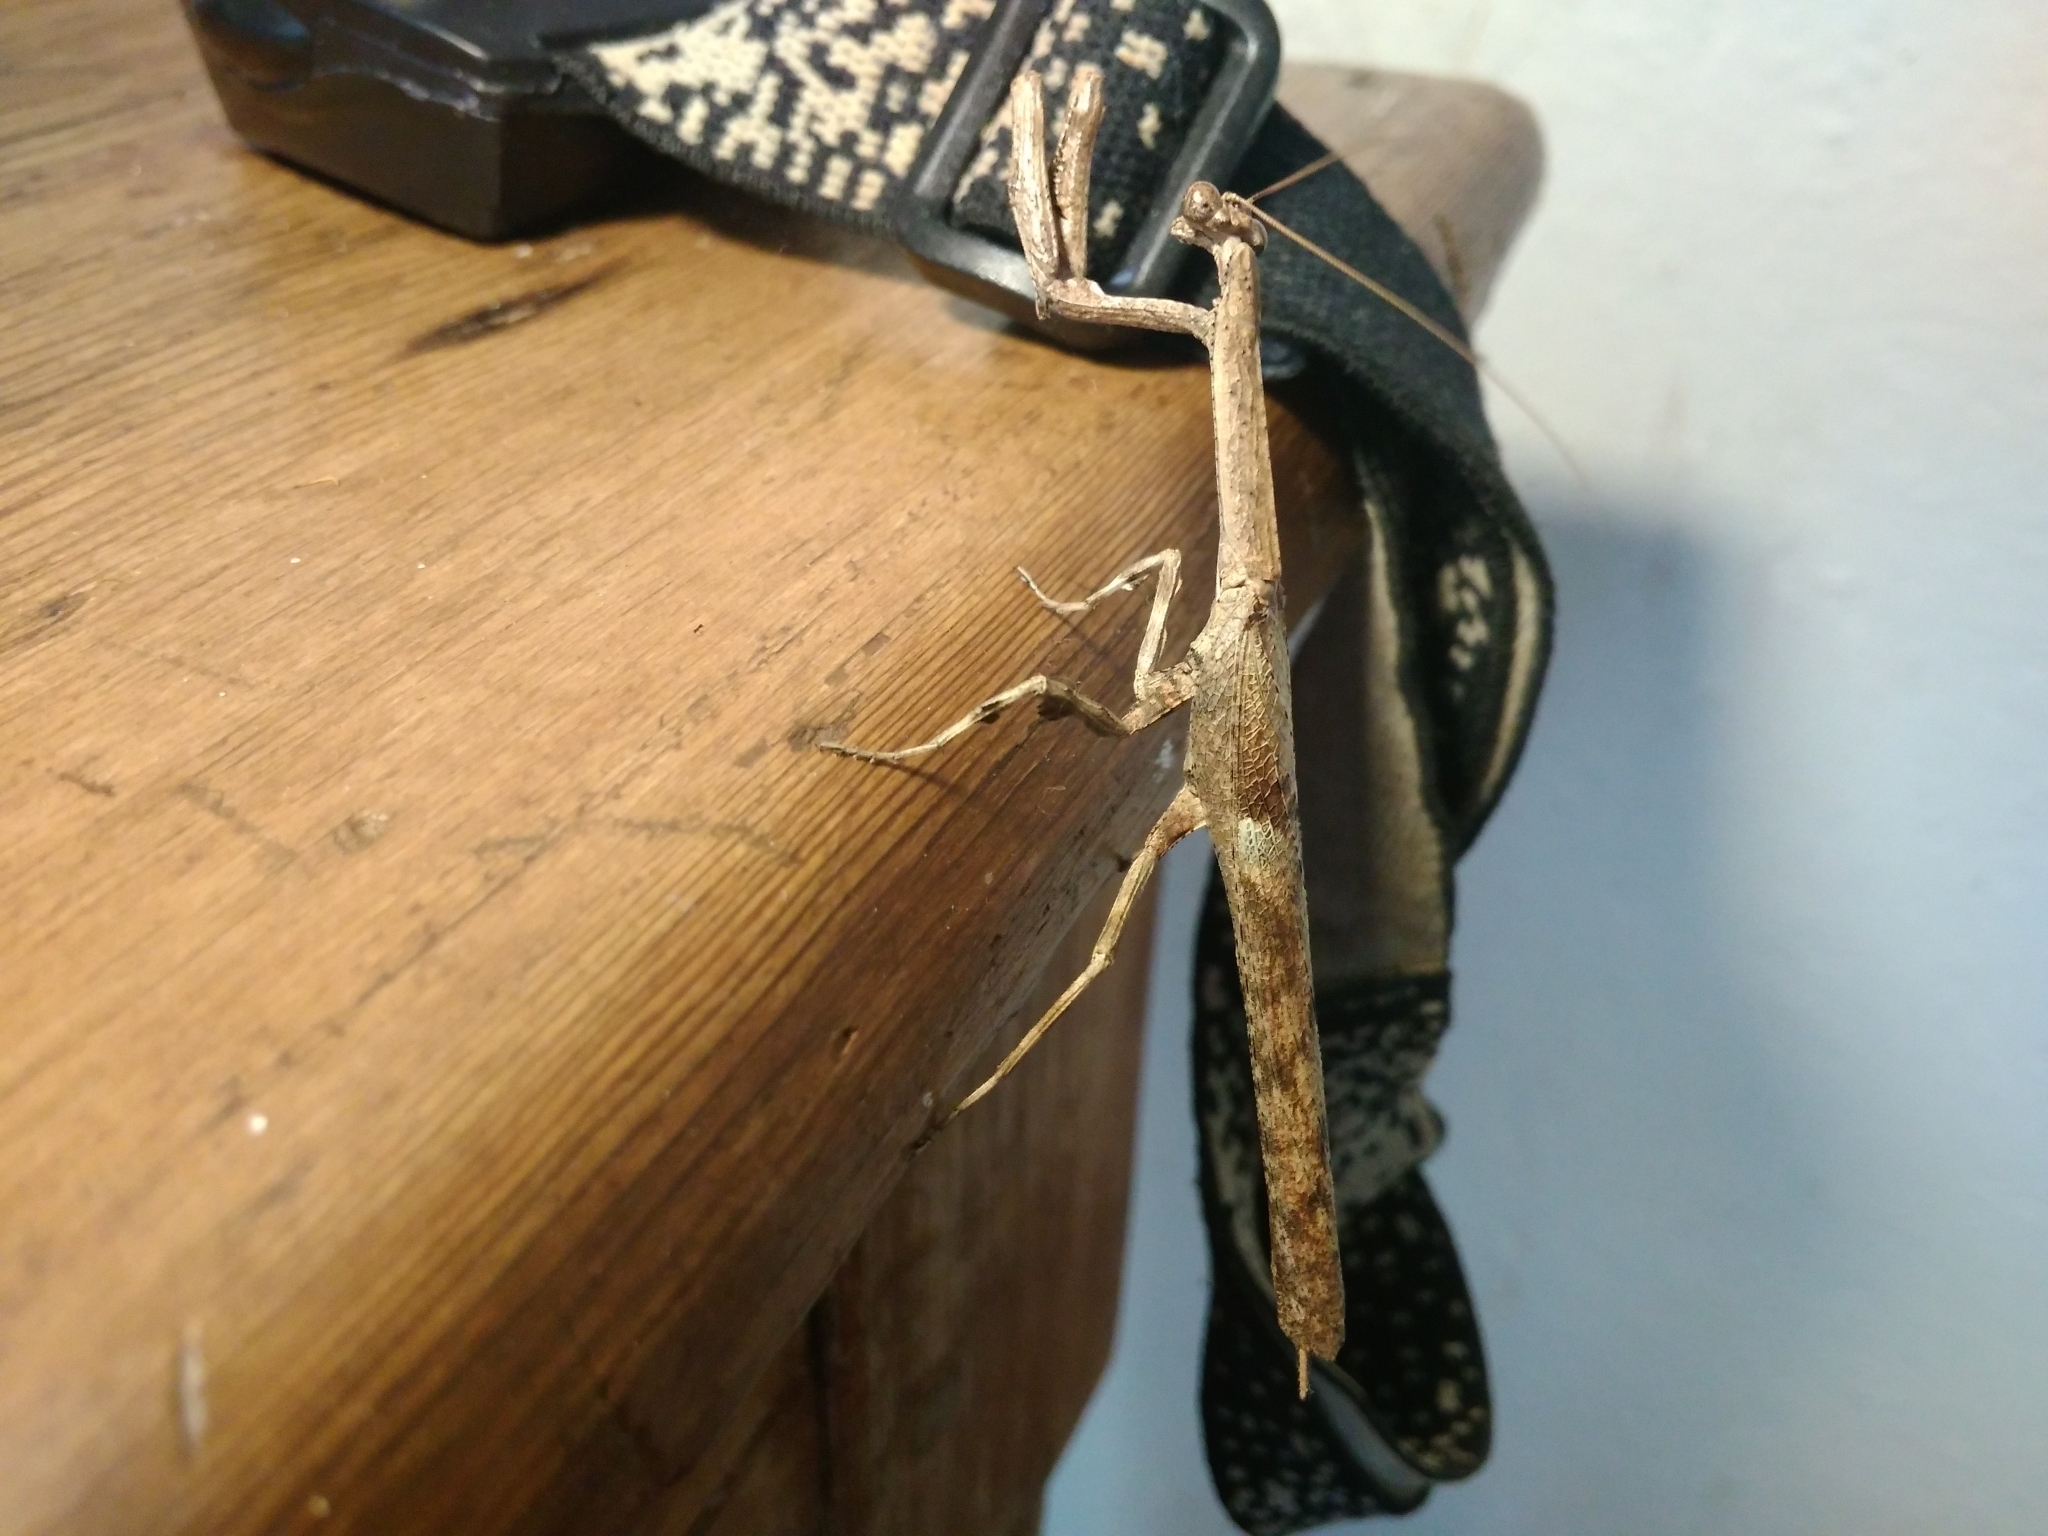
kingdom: Animalia
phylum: Arthropoda
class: Insecta
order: Mantodea
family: Deroplatyidae
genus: Popa
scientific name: Popa spurca
